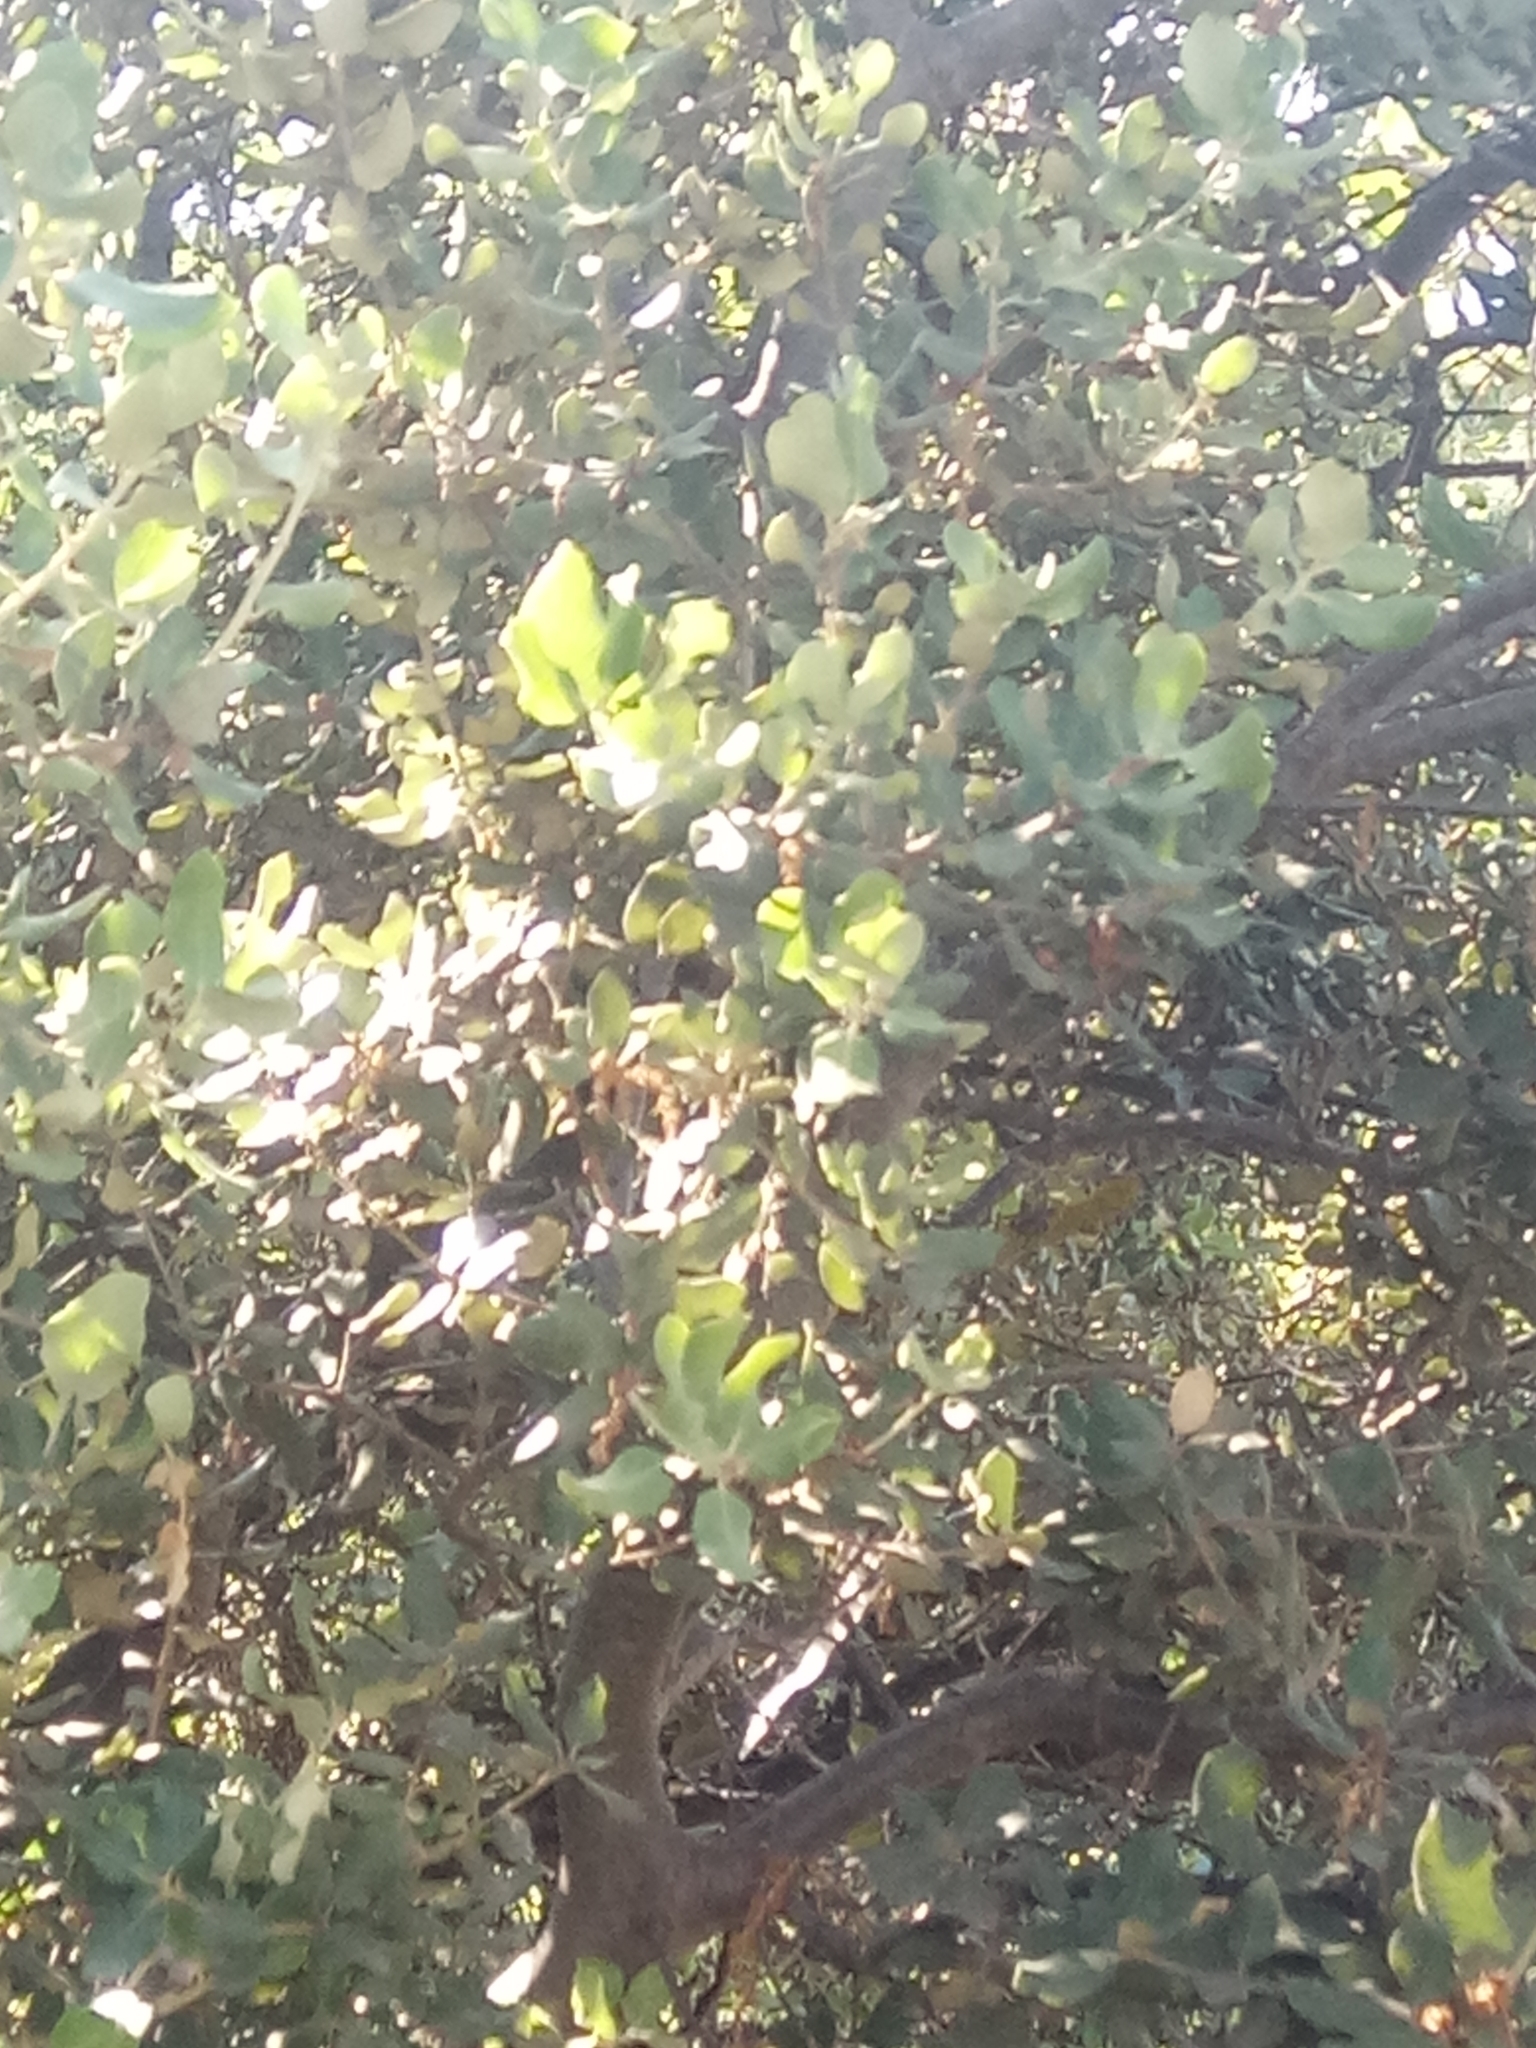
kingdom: Plantae
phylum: Tracheophyta
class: Magnoliopsida
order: Fagales
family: Fagaceae
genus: Quercus
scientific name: Quercus rotundifolia
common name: Holm oak
